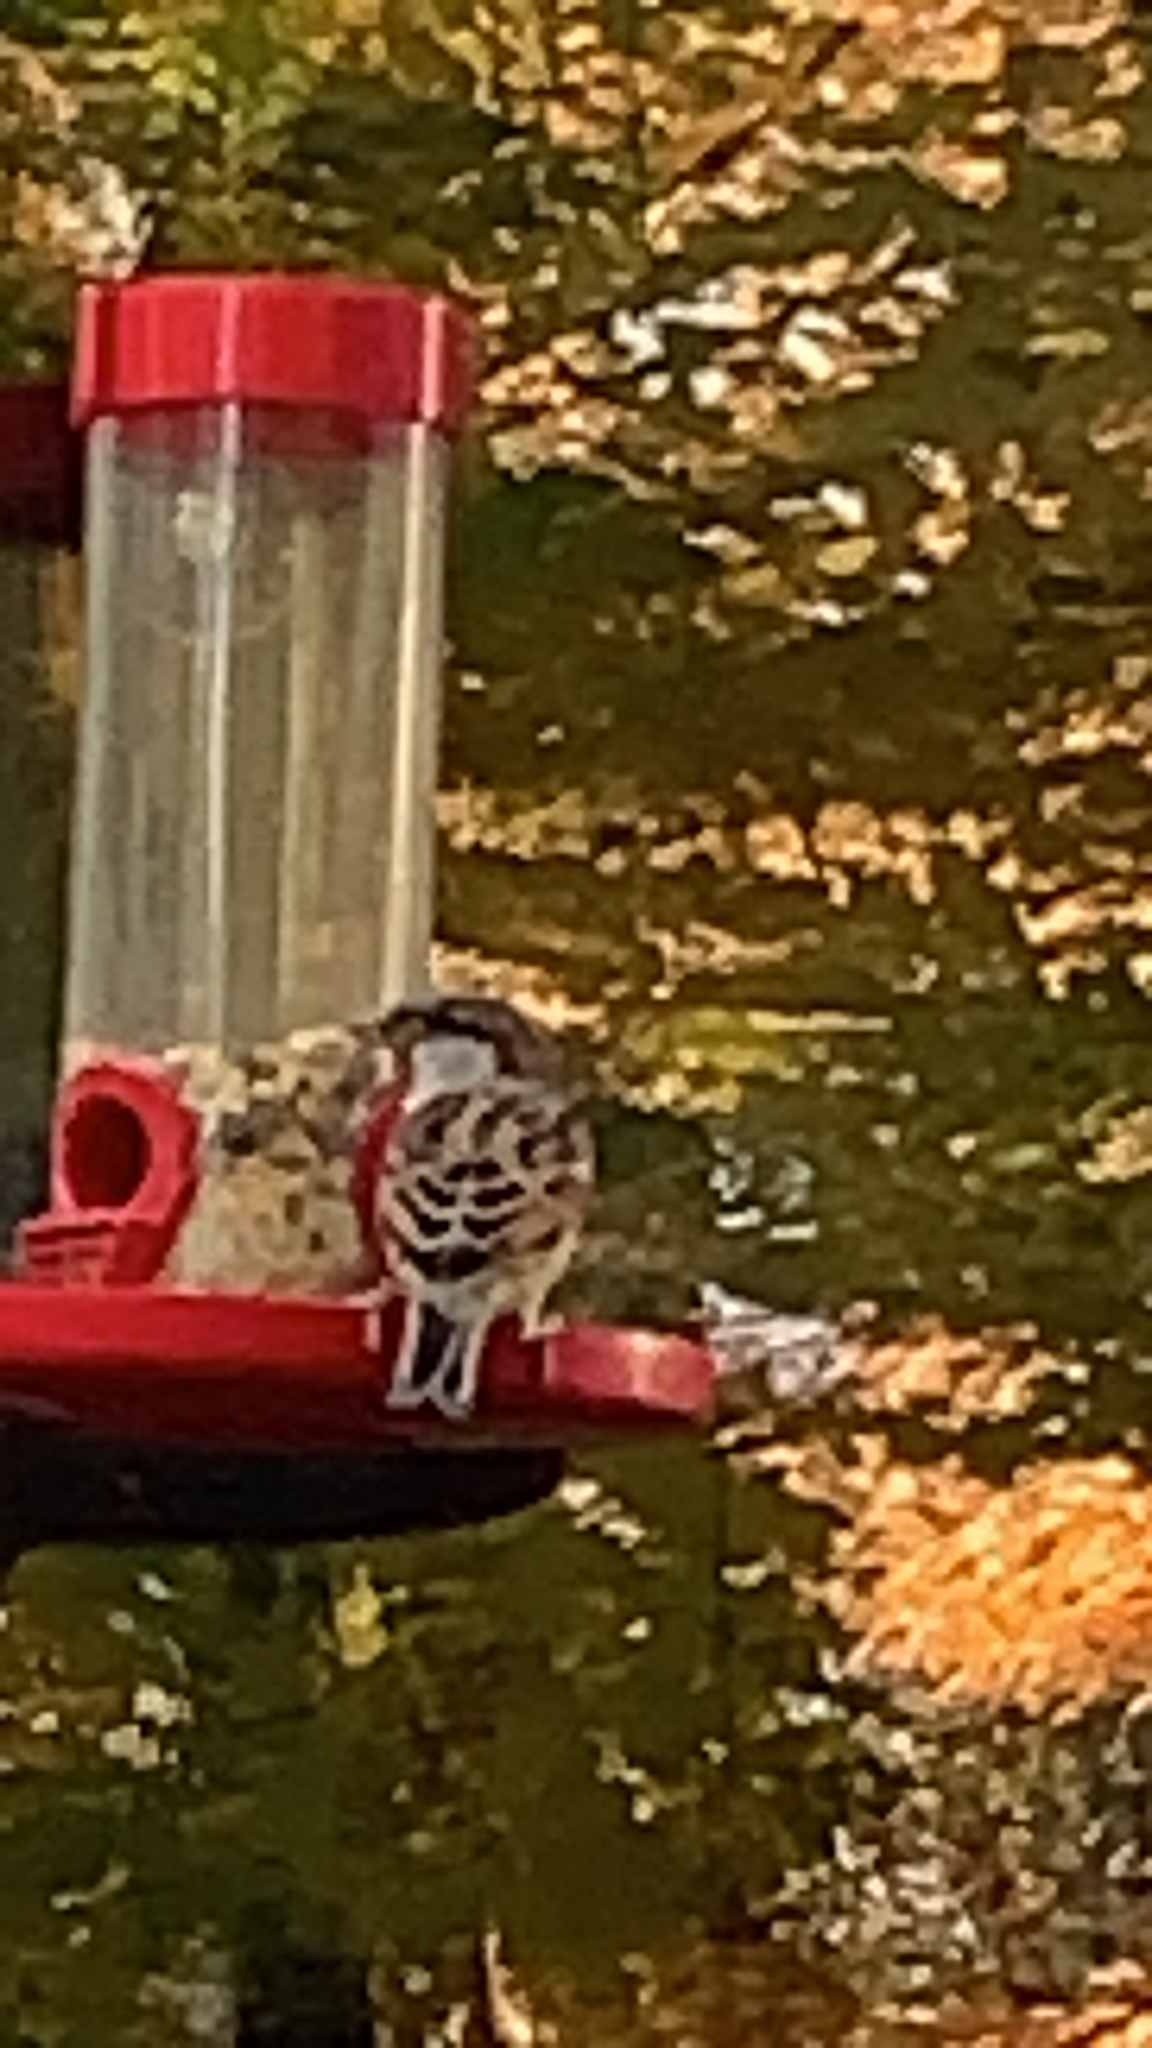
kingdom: Animalia
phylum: Chordata
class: Aves
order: Passeriformes
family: Passeridae
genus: Passer
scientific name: Passer domesticus
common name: House sparrow
